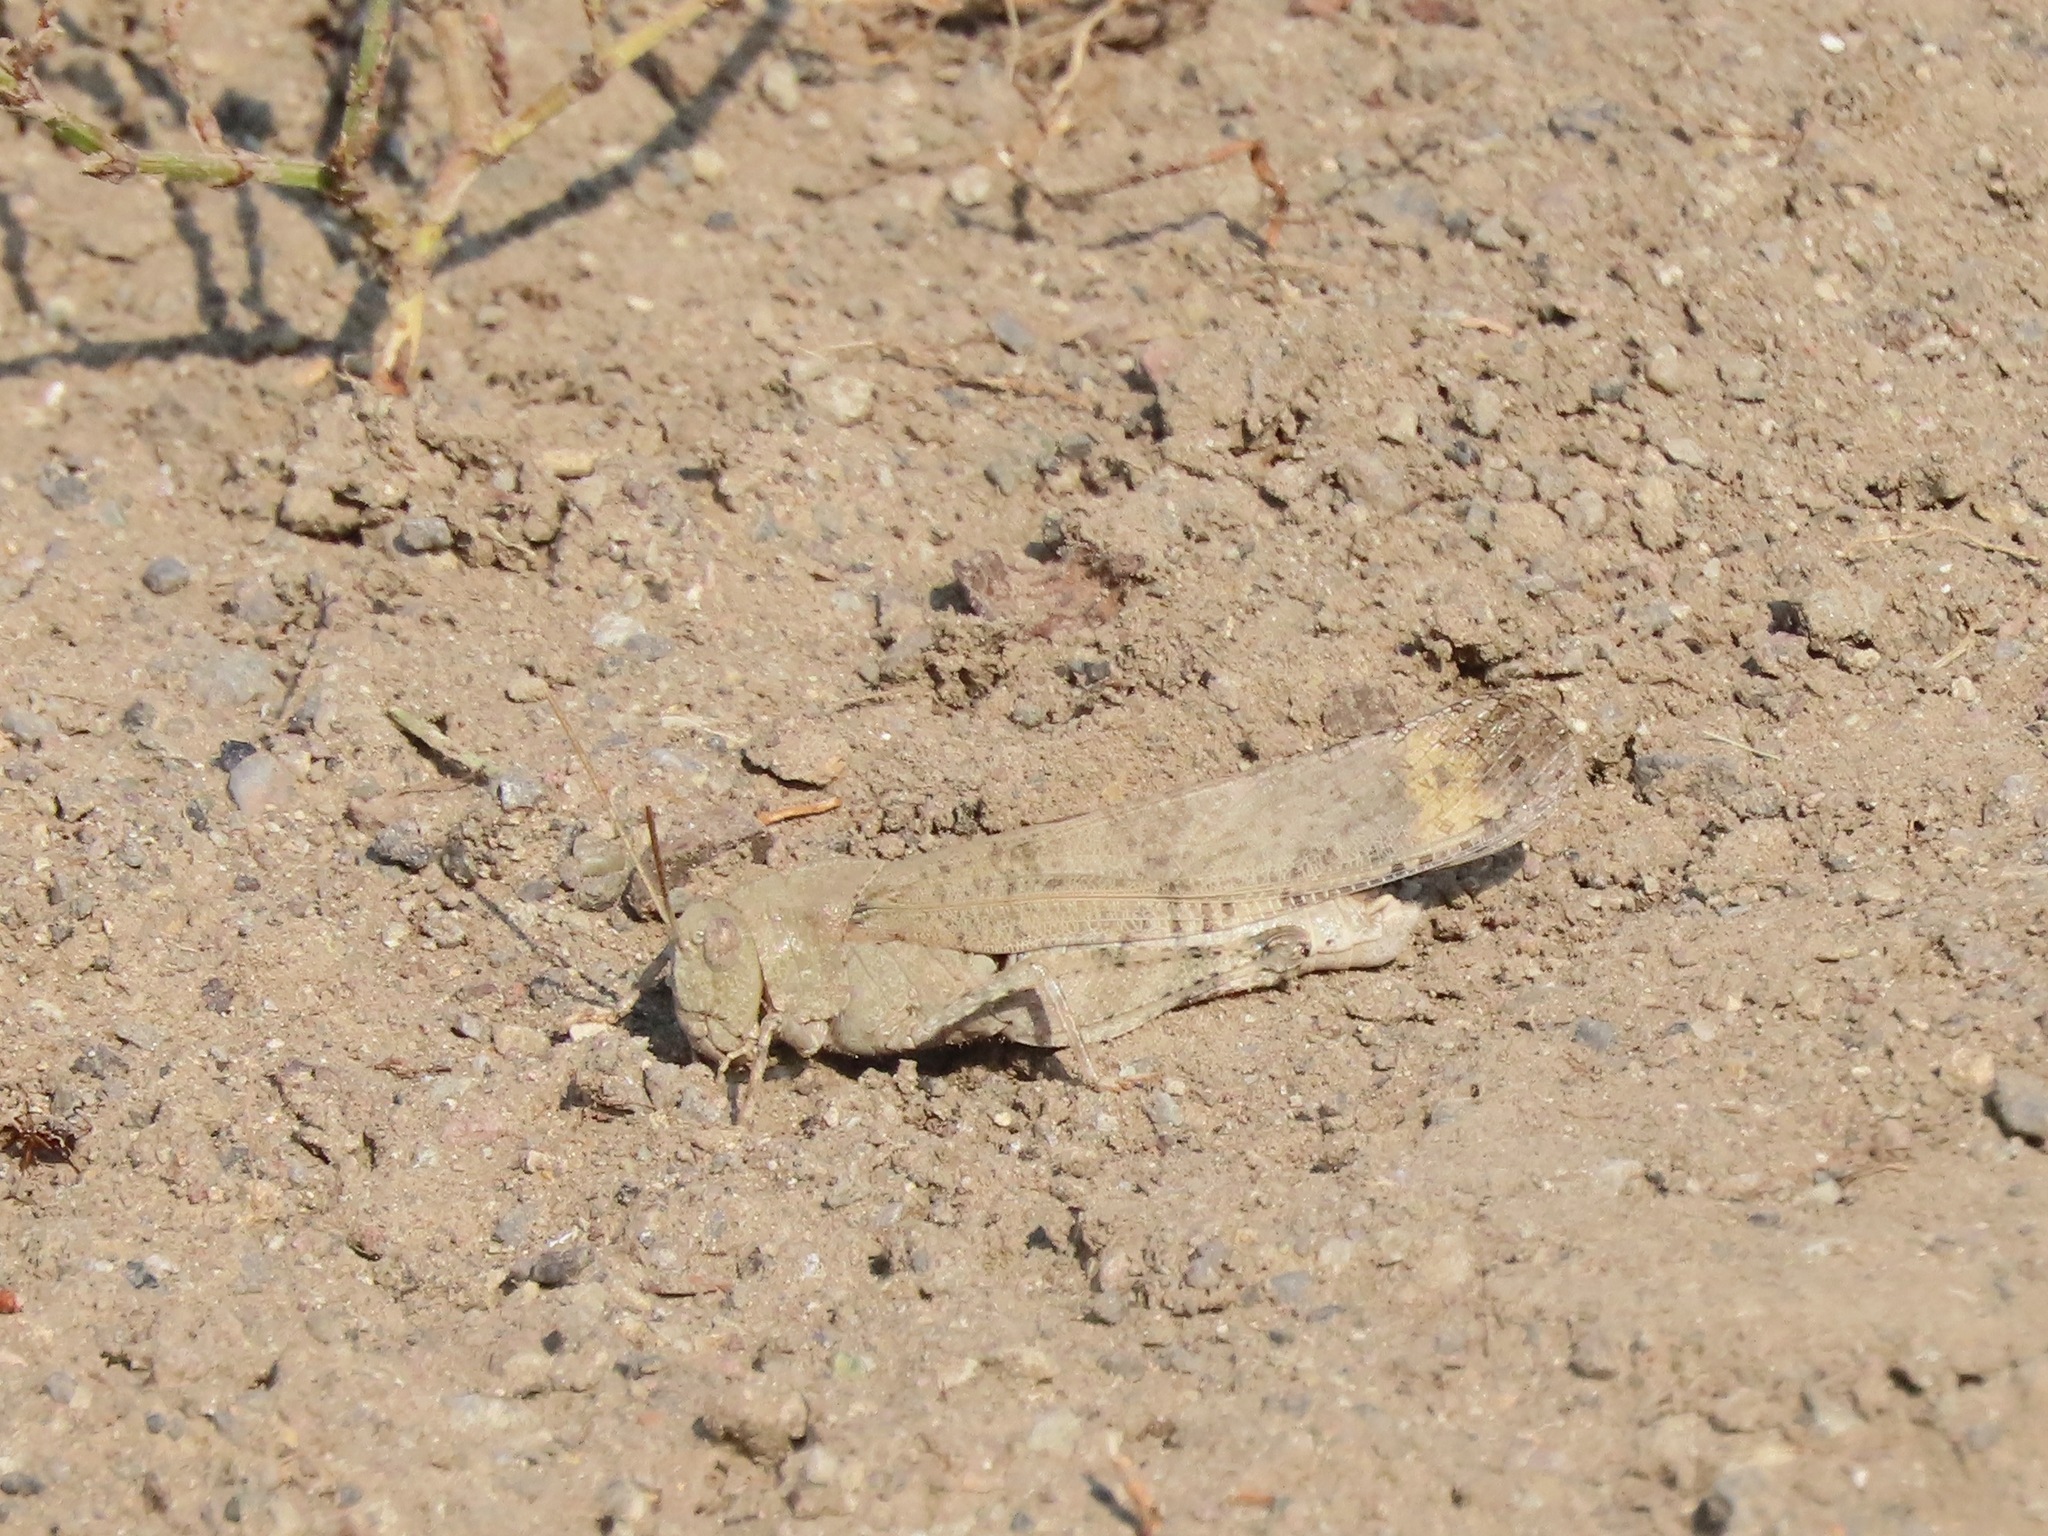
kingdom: Animalia
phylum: Arthropoda
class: Insecta
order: Orthoptera
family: Acrididae
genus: Dissosteira
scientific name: Dissosteira carolina
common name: Carolina grasshopper
